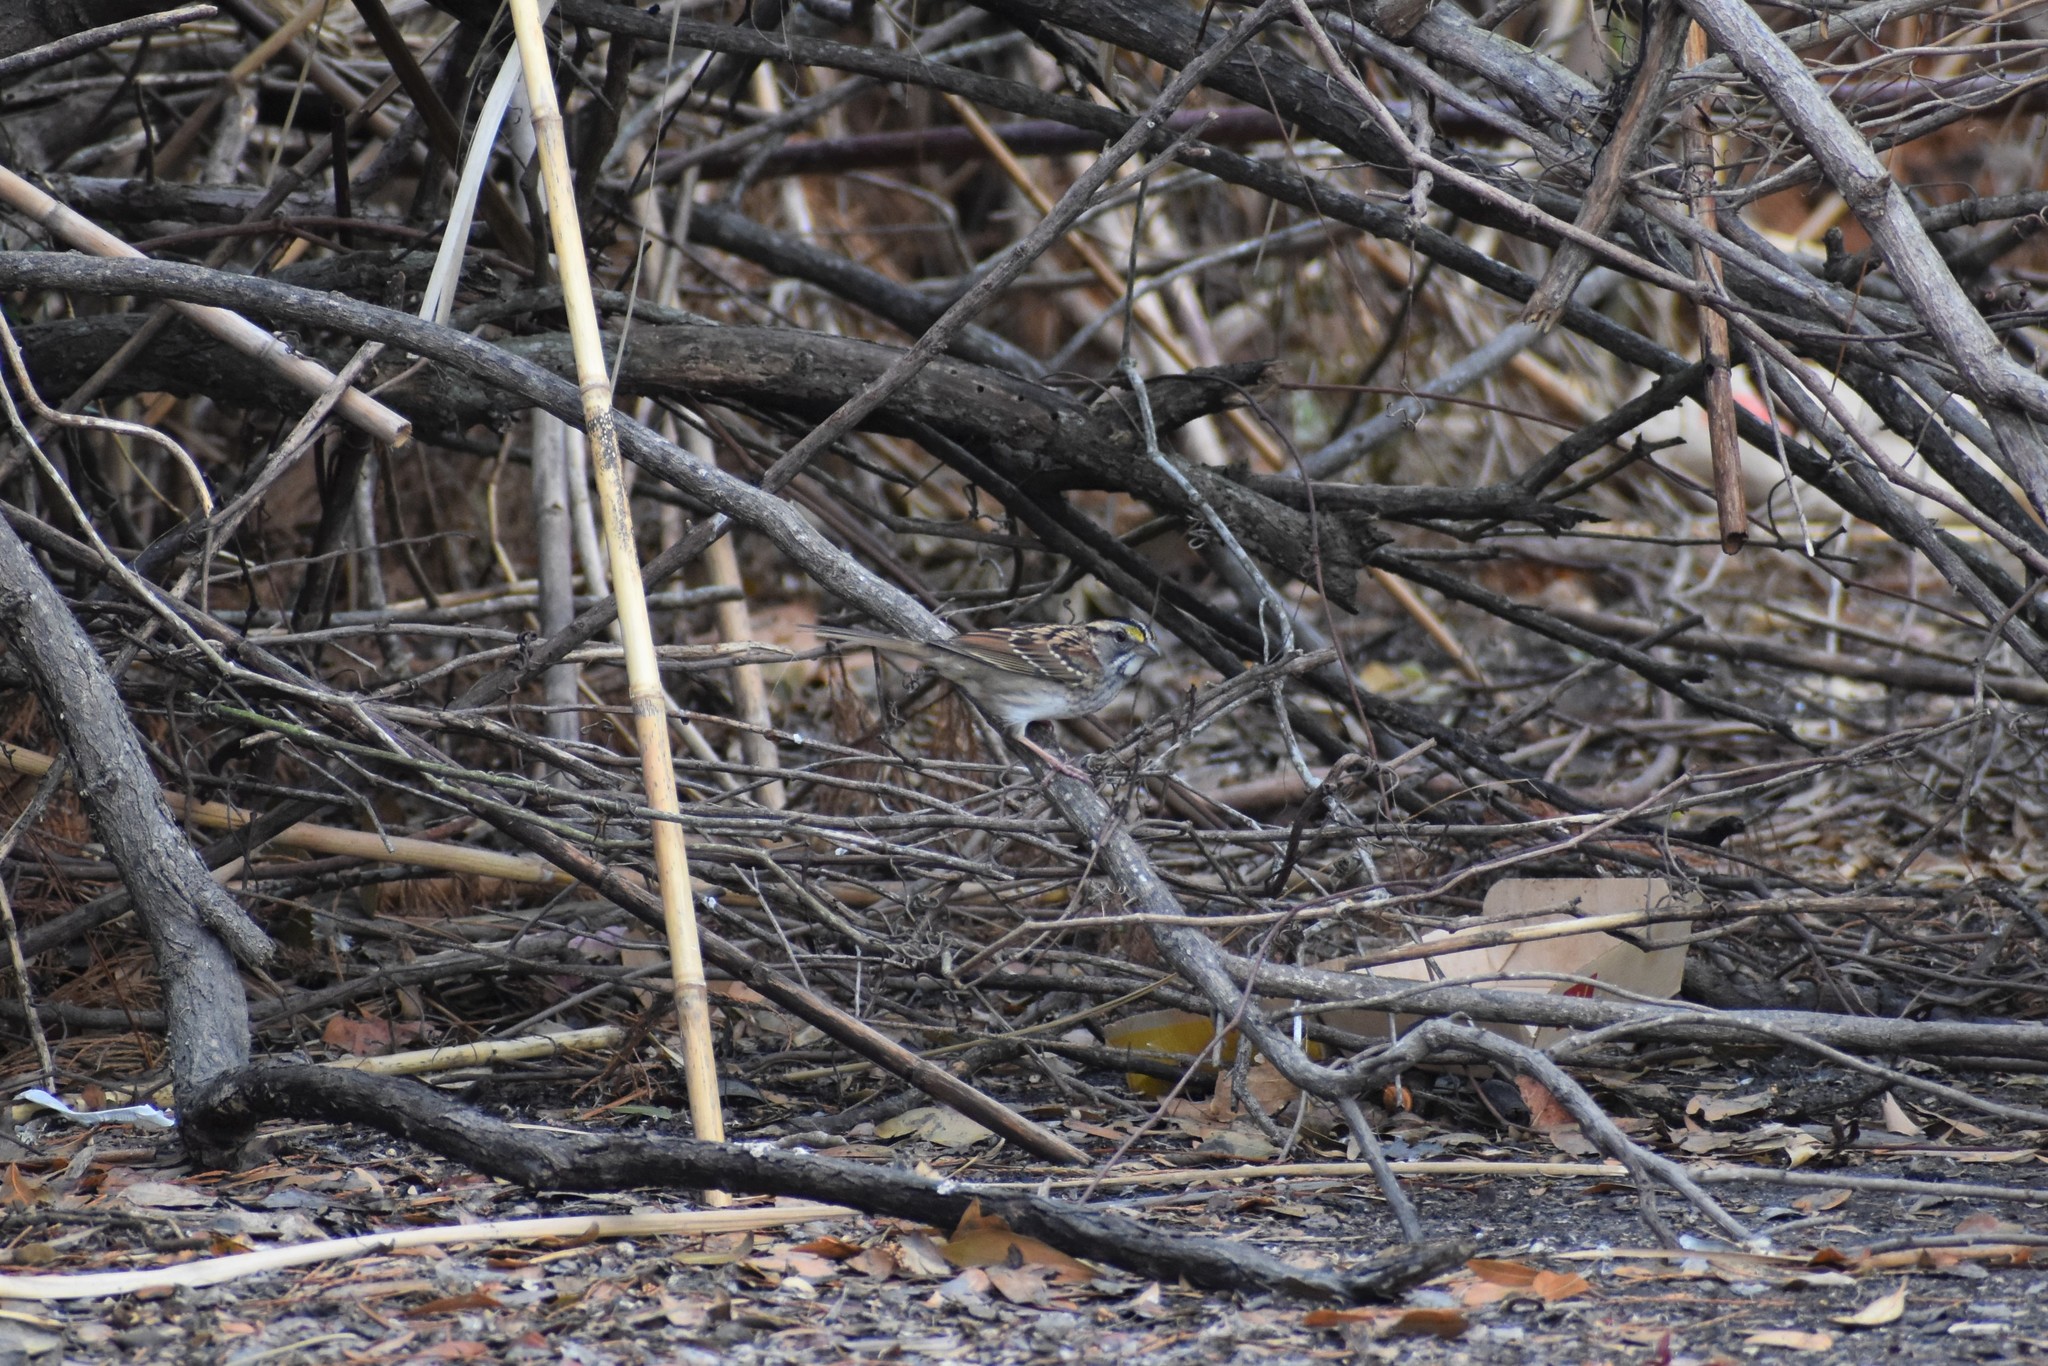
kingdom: Animalia
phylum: Chordata
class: Aves
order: Passeriformes
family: Passerellidae
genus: Zonotrichia
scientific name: Zonotrichia albicollis
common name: White-throated sparrow
